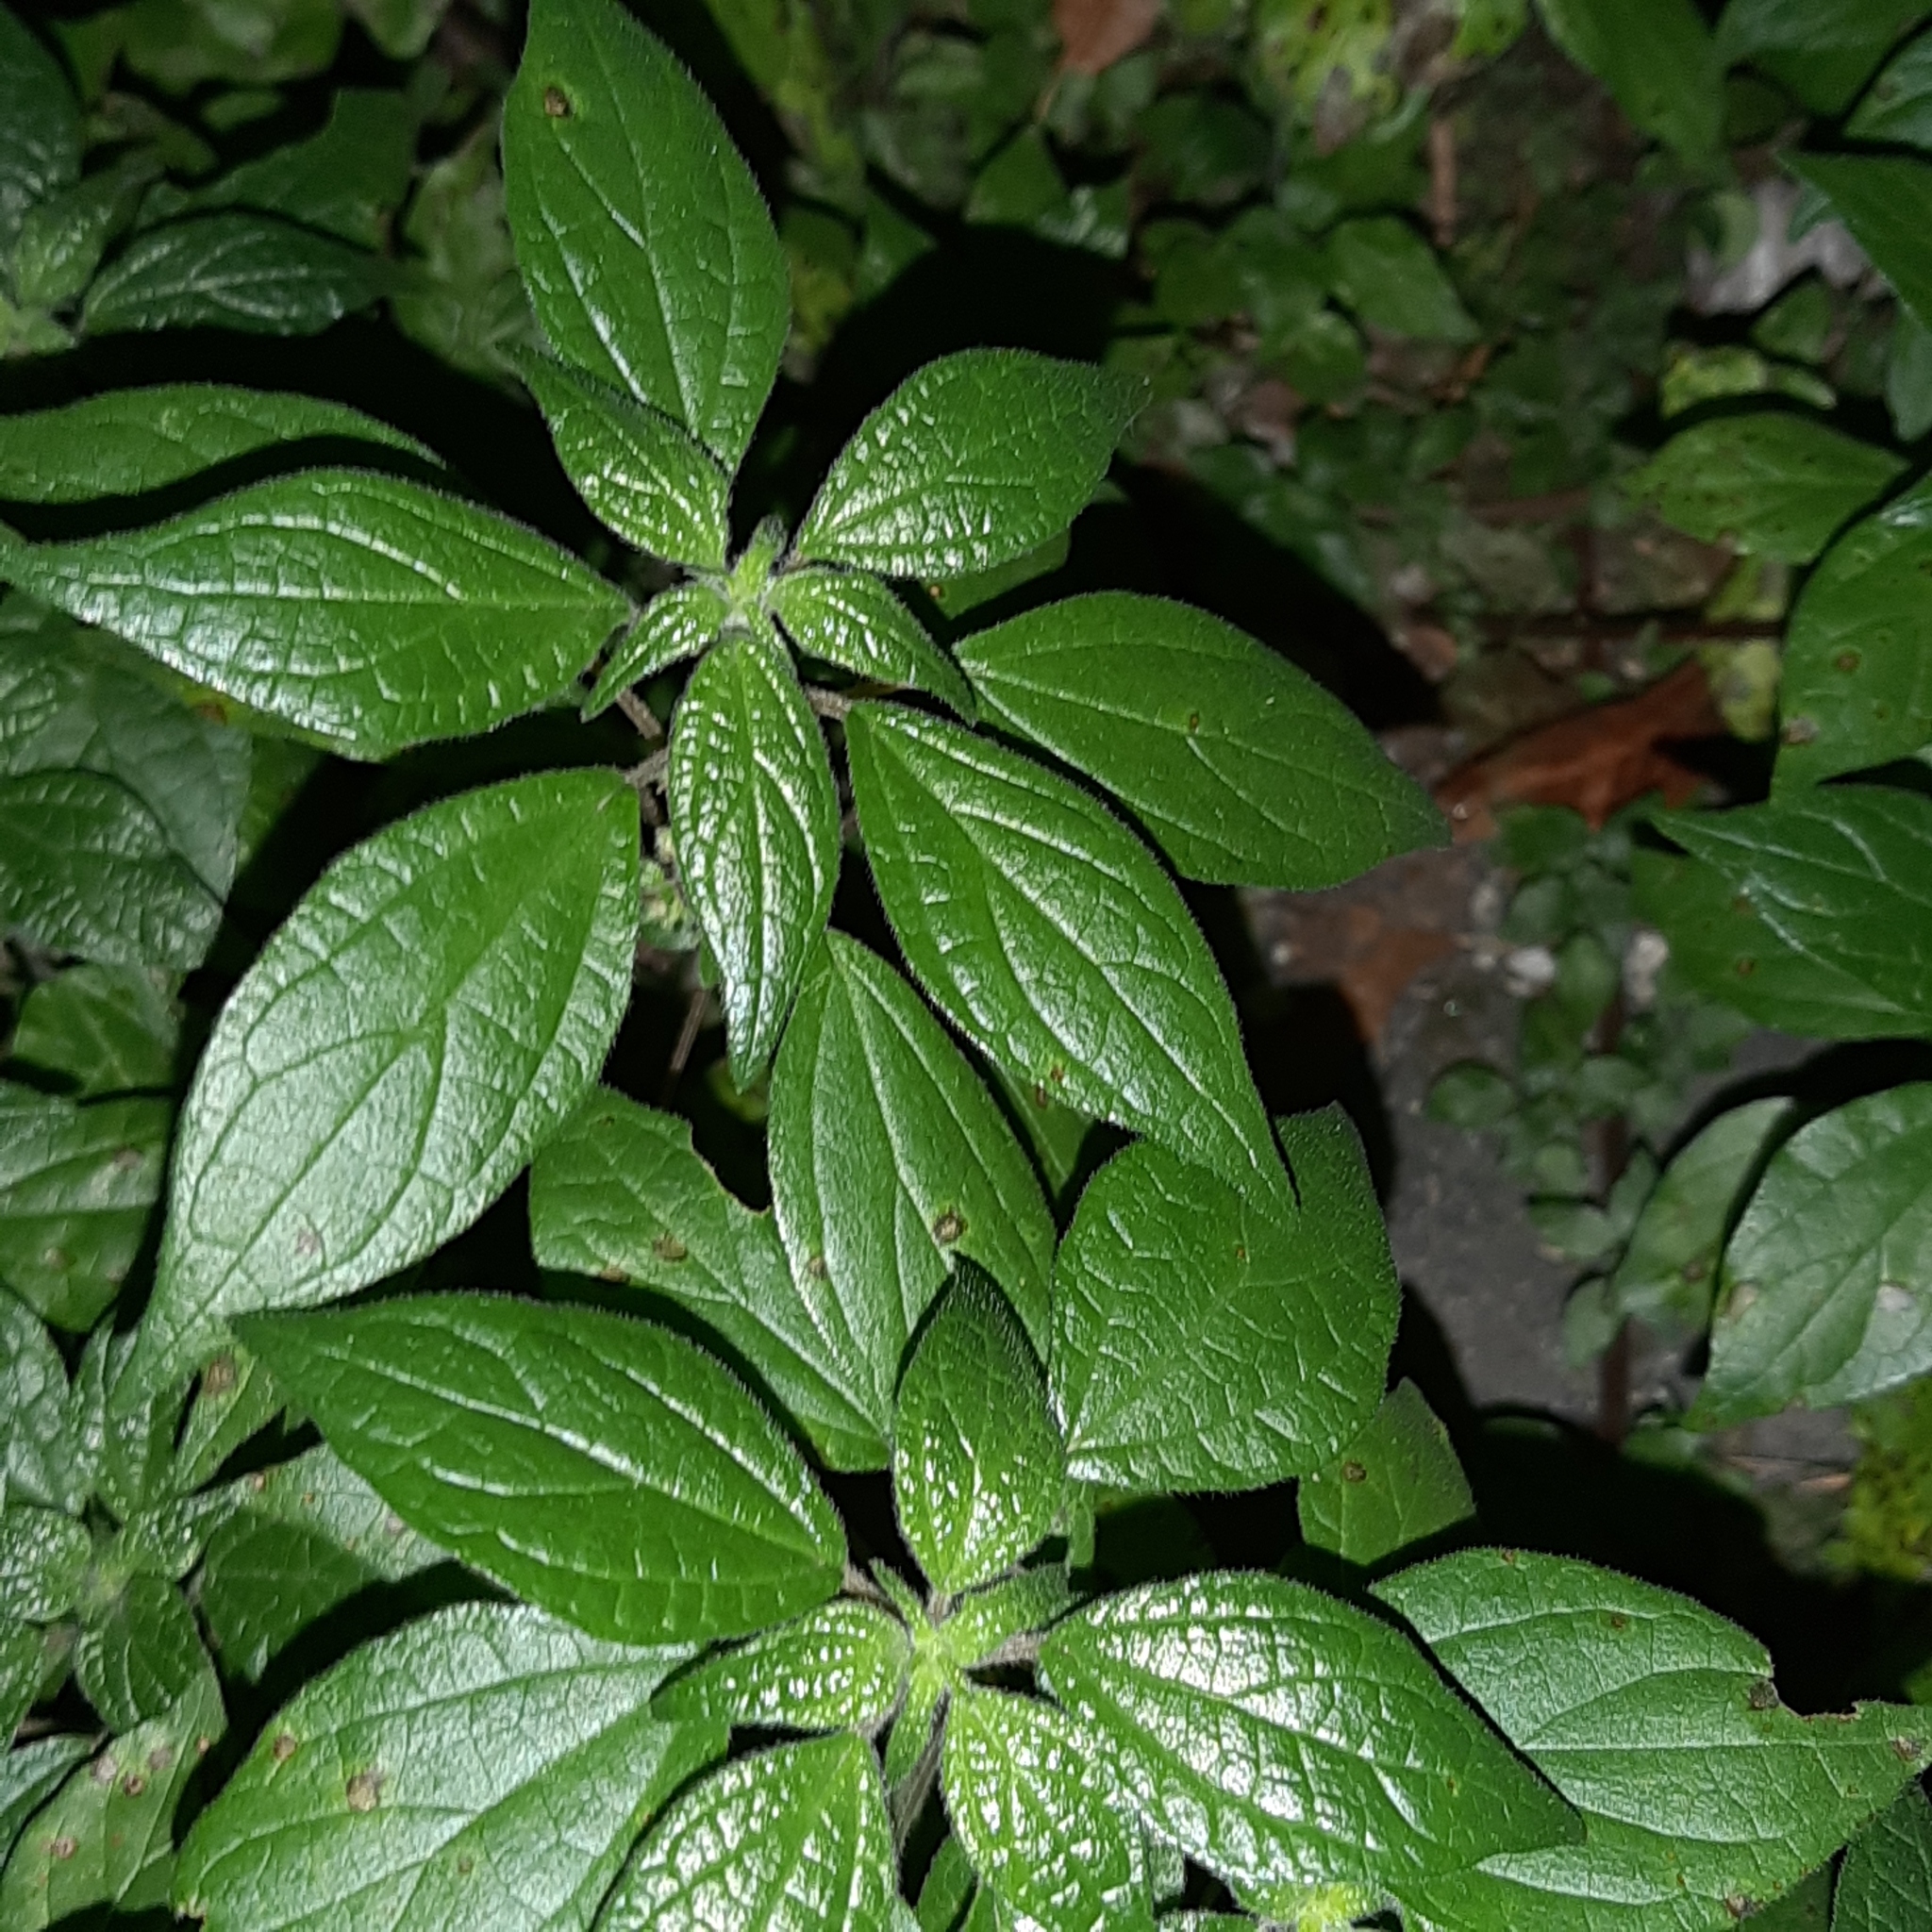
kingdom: Plantae
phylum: Tracheophyta
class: Magnoliopsida
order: Rosales
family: Urticaceae
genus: Parietaria
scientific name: Parietaria judaica
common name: Pellitory-of-the-wall
